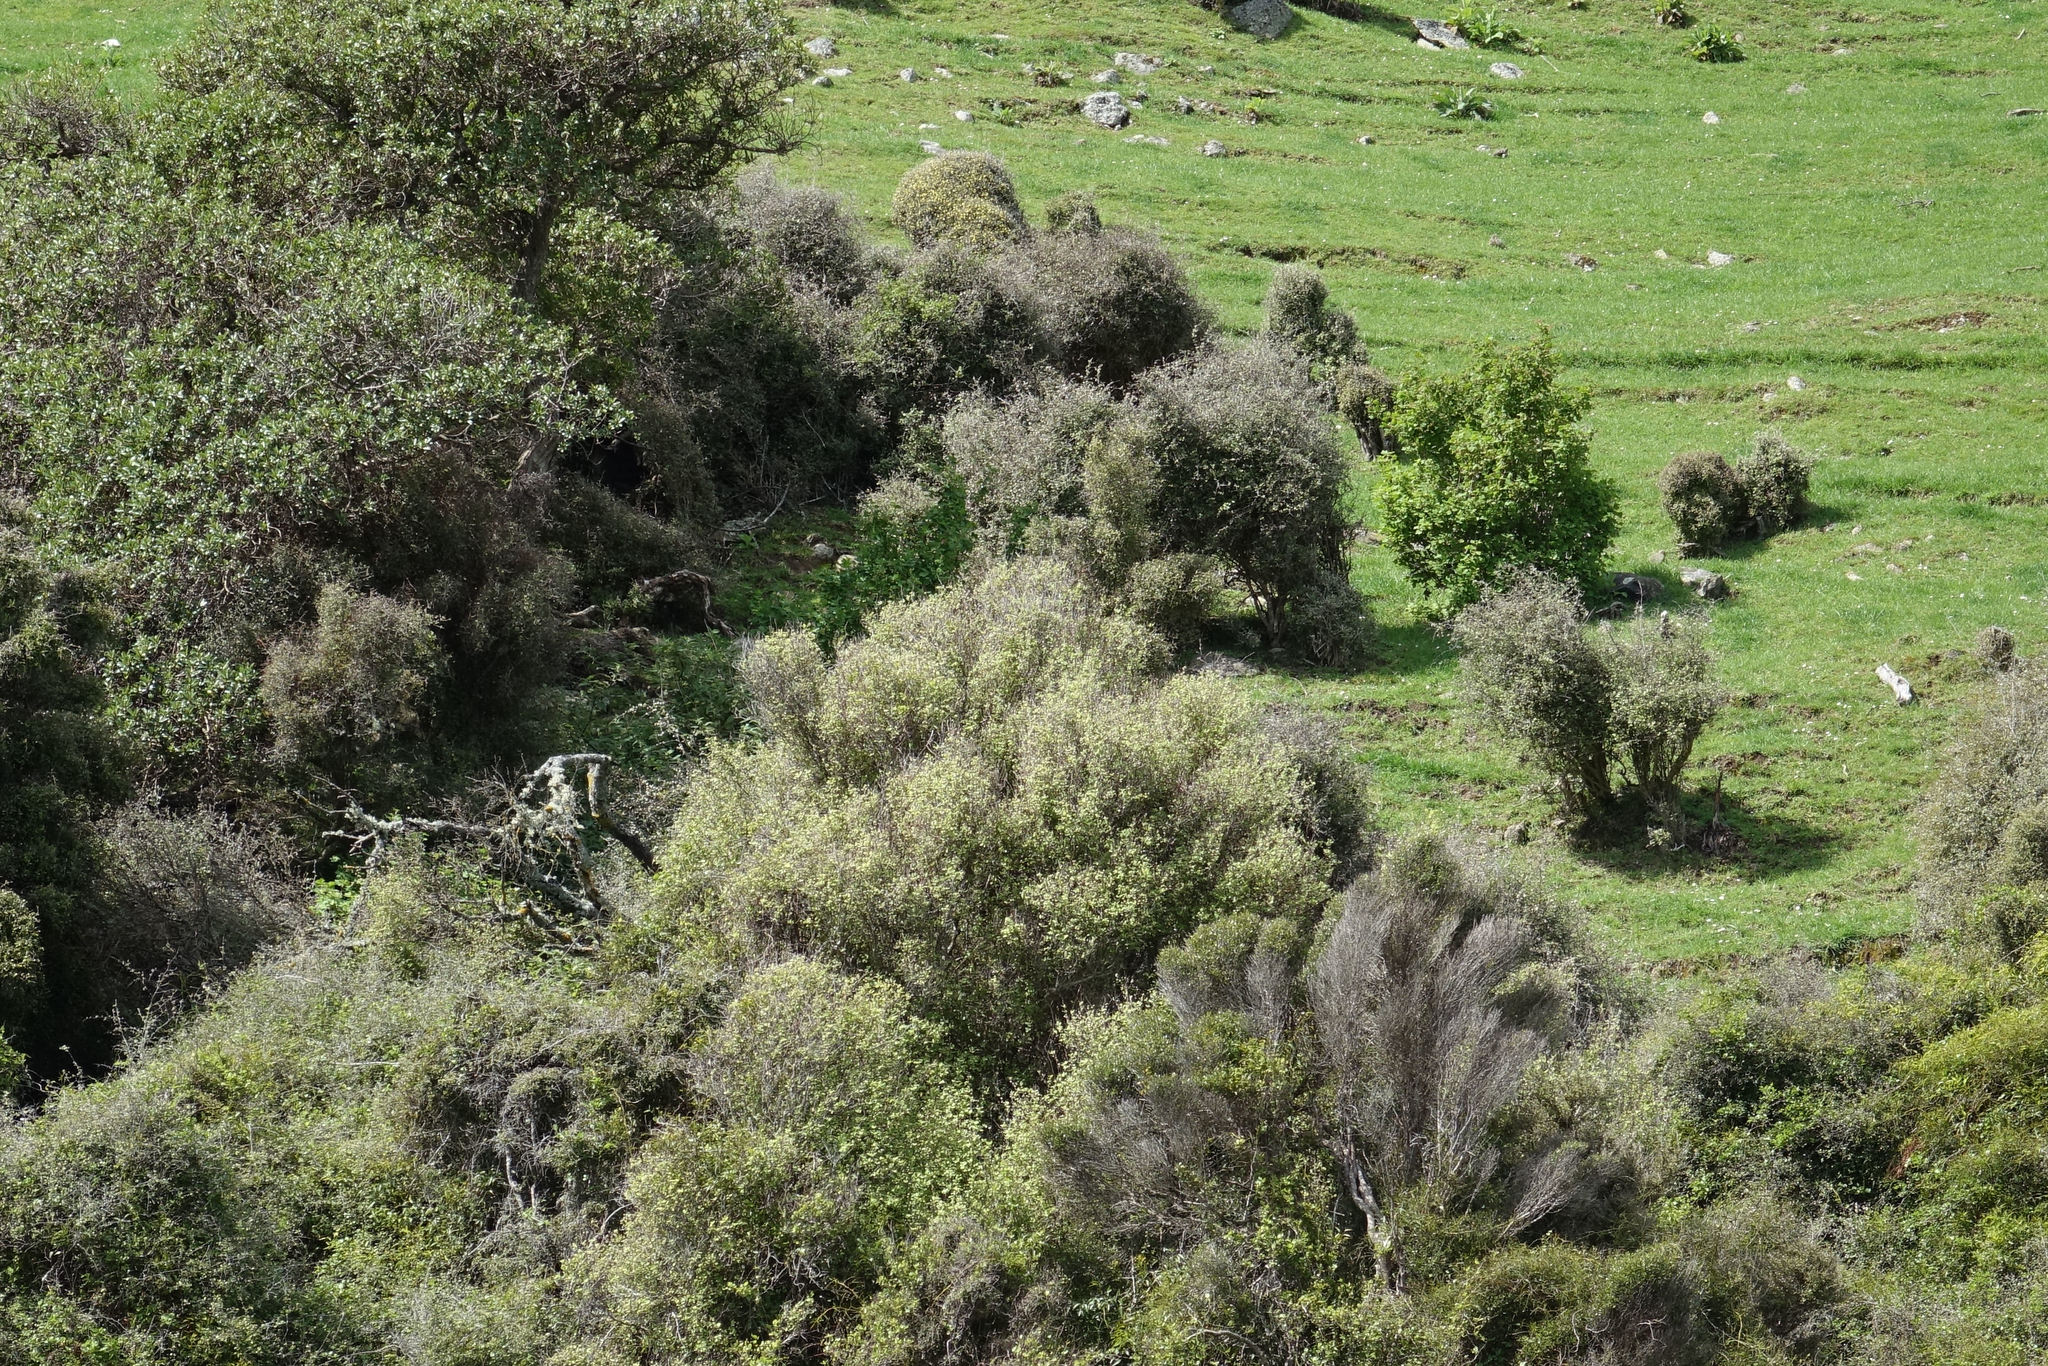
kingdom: Plantae
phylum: Tracheophyta
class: Magnoliopsida
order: Asterales
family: Asteraceae
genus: Olearia
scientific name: Olearia fragrantissima
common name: Fragrant tree daisy
